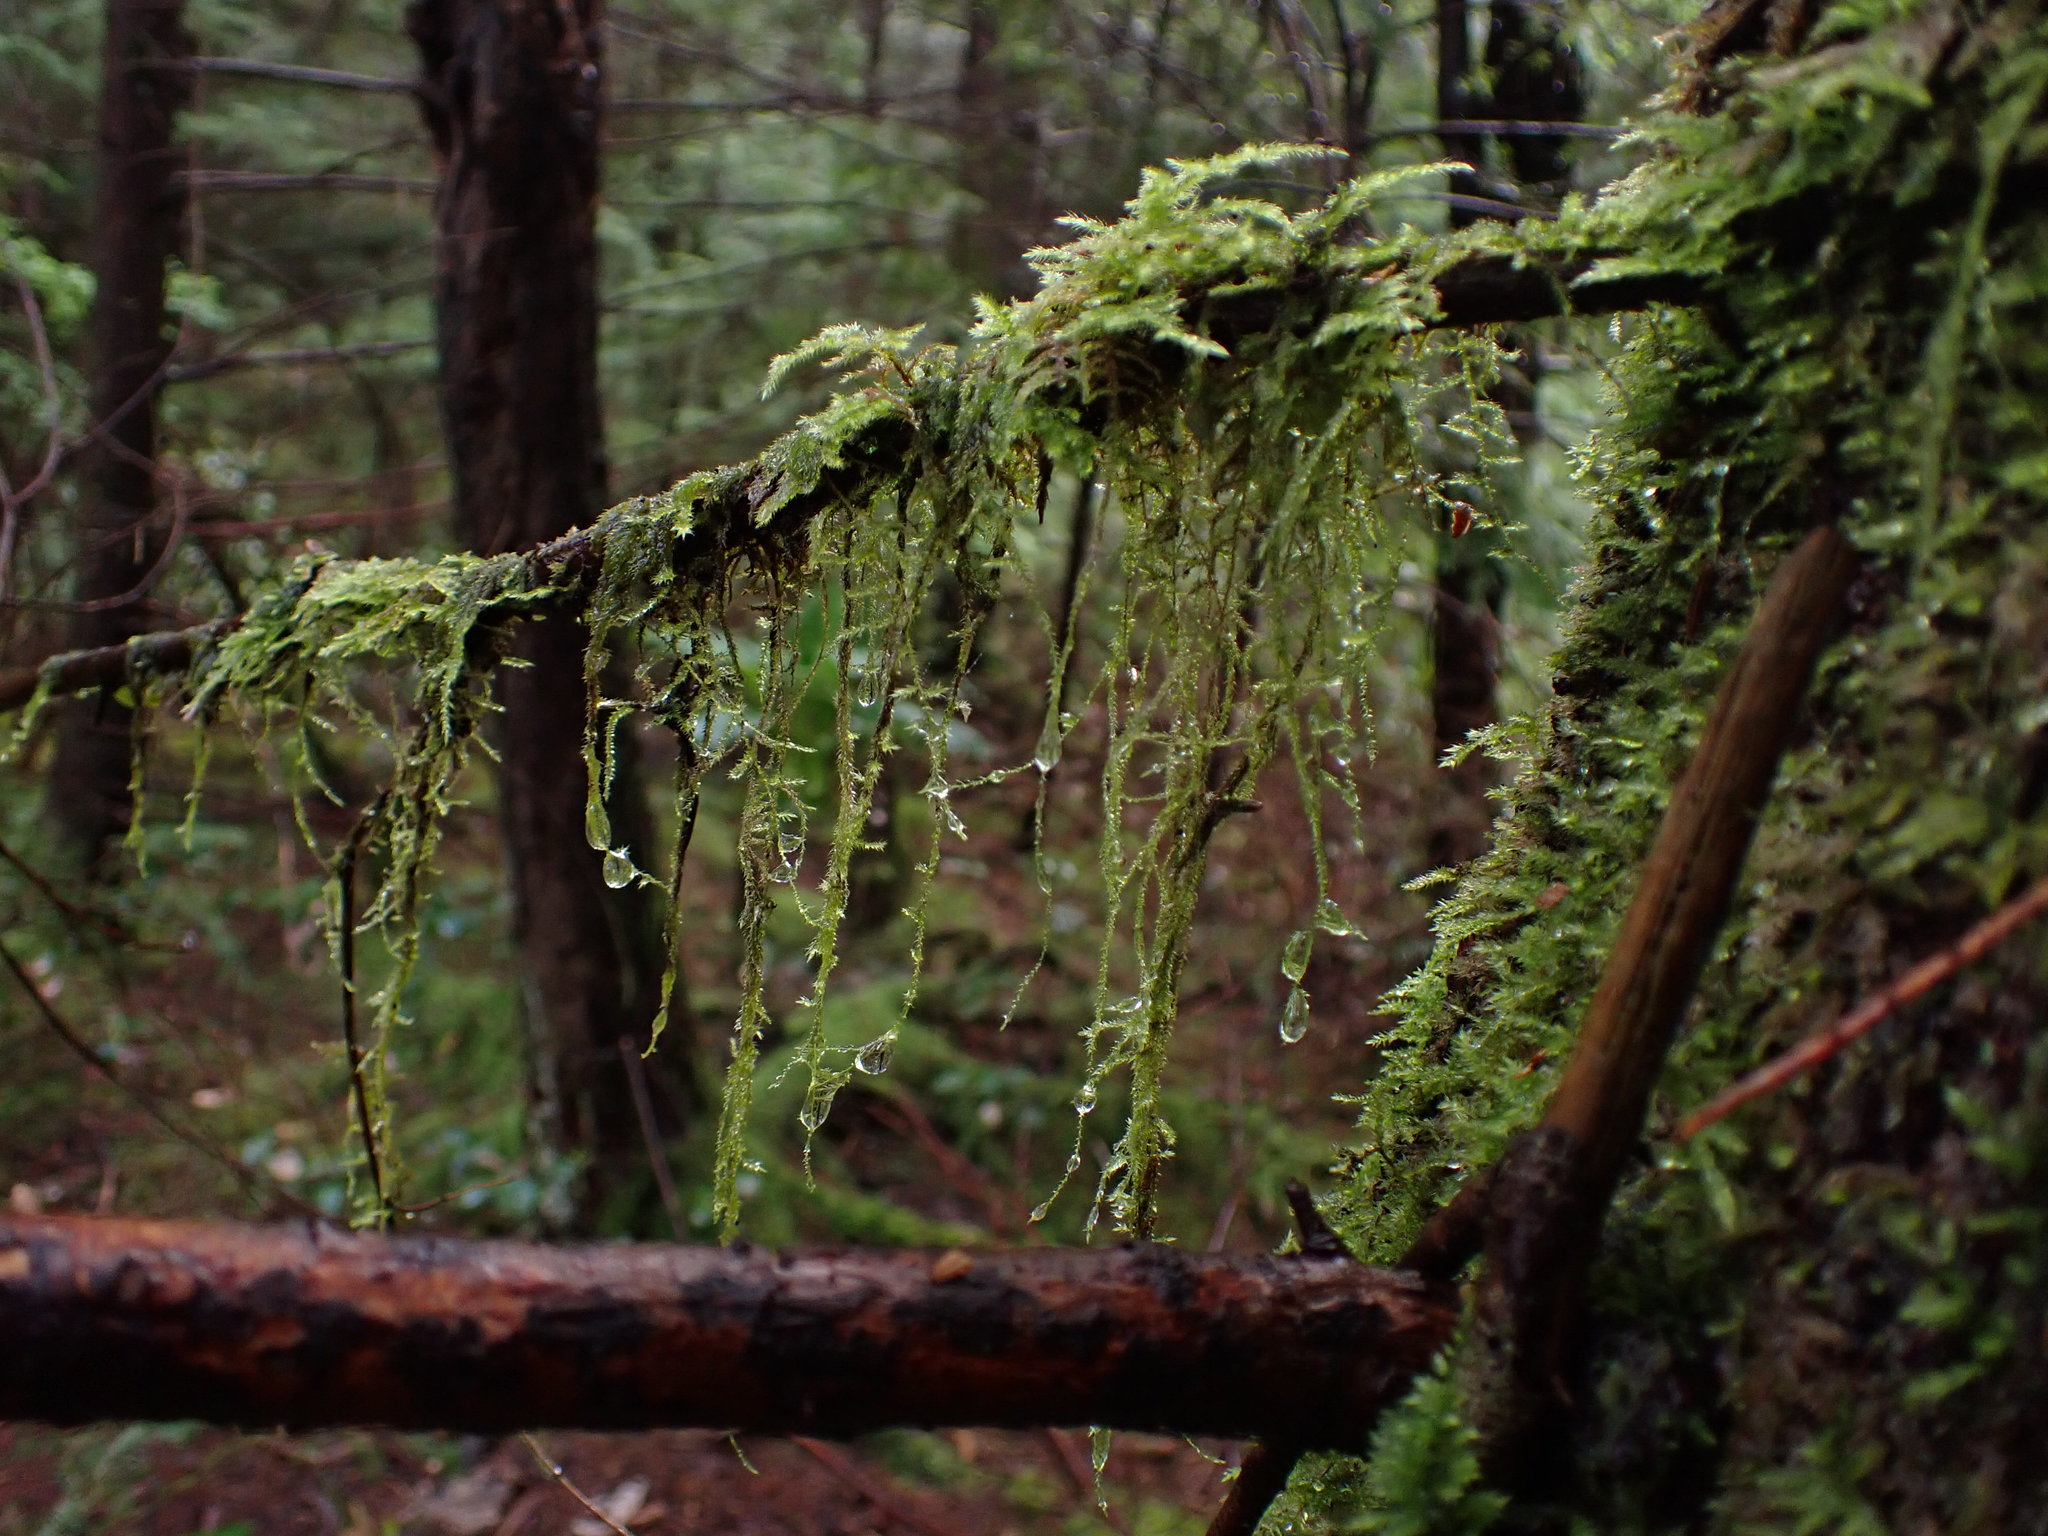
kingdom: Plantae
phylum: Bryophyta
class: Bryopsida
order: Hypnales
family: Lembophyllaceae
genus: Pseudisothecium
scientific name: Pseudisothecium stoloniferum
